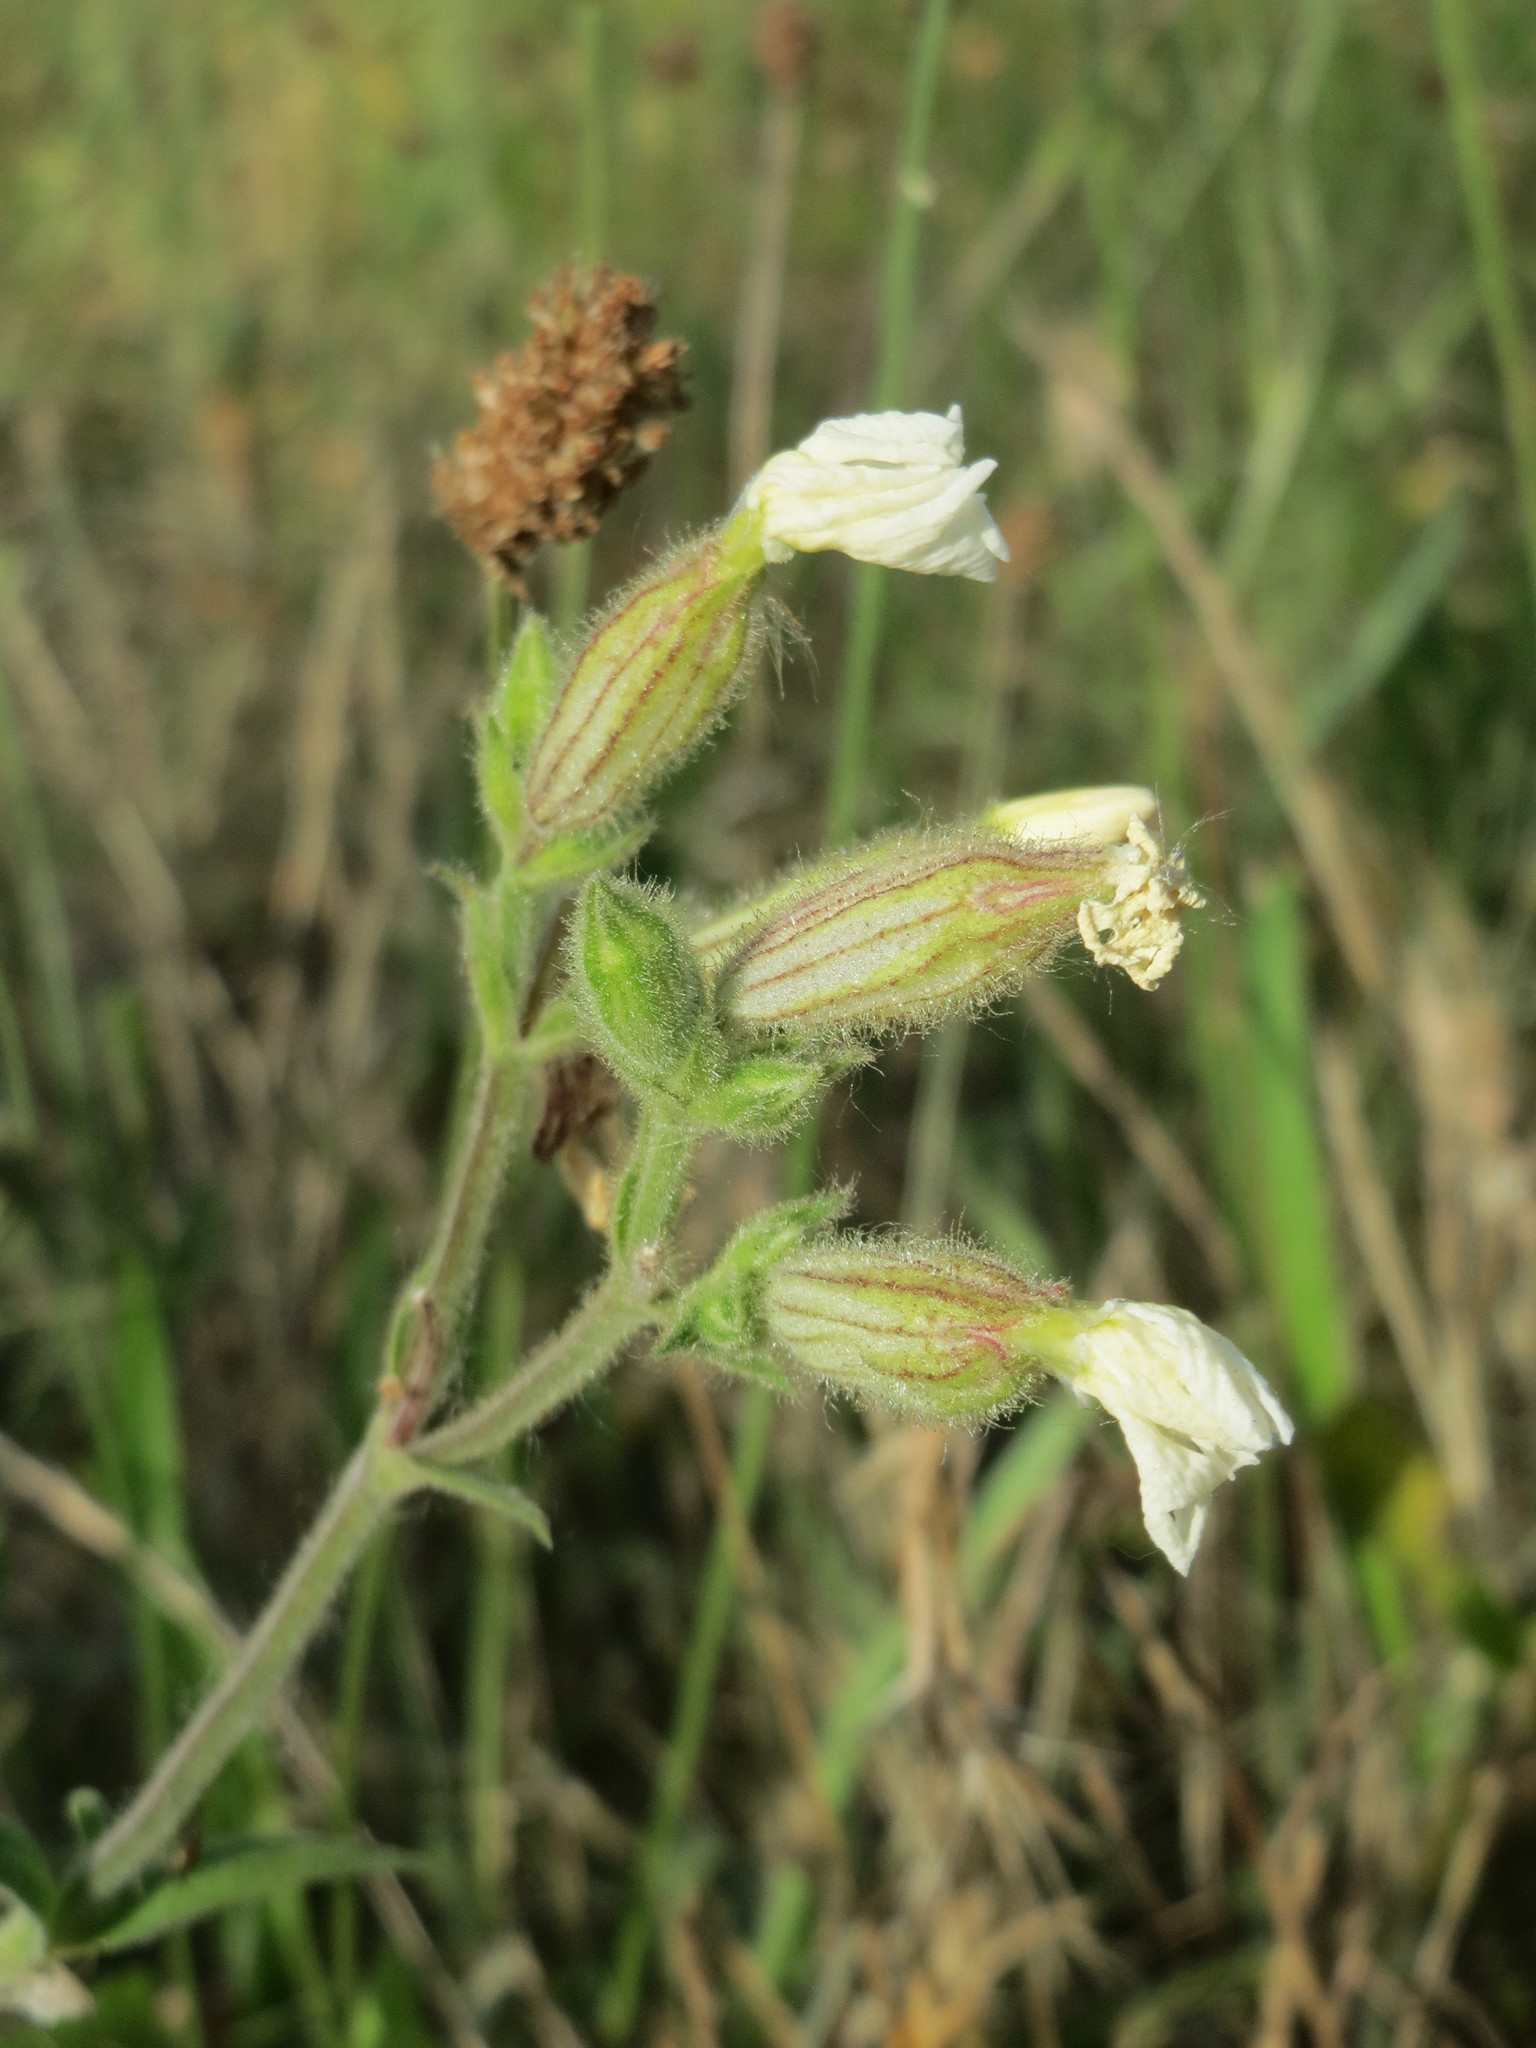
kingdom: Plantae
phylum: Tracheophyta
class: Magnoliopsida
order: Caryophyllales
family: Caryophyllaceae
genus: Silene
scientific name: Silene latifolia
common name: White campion
